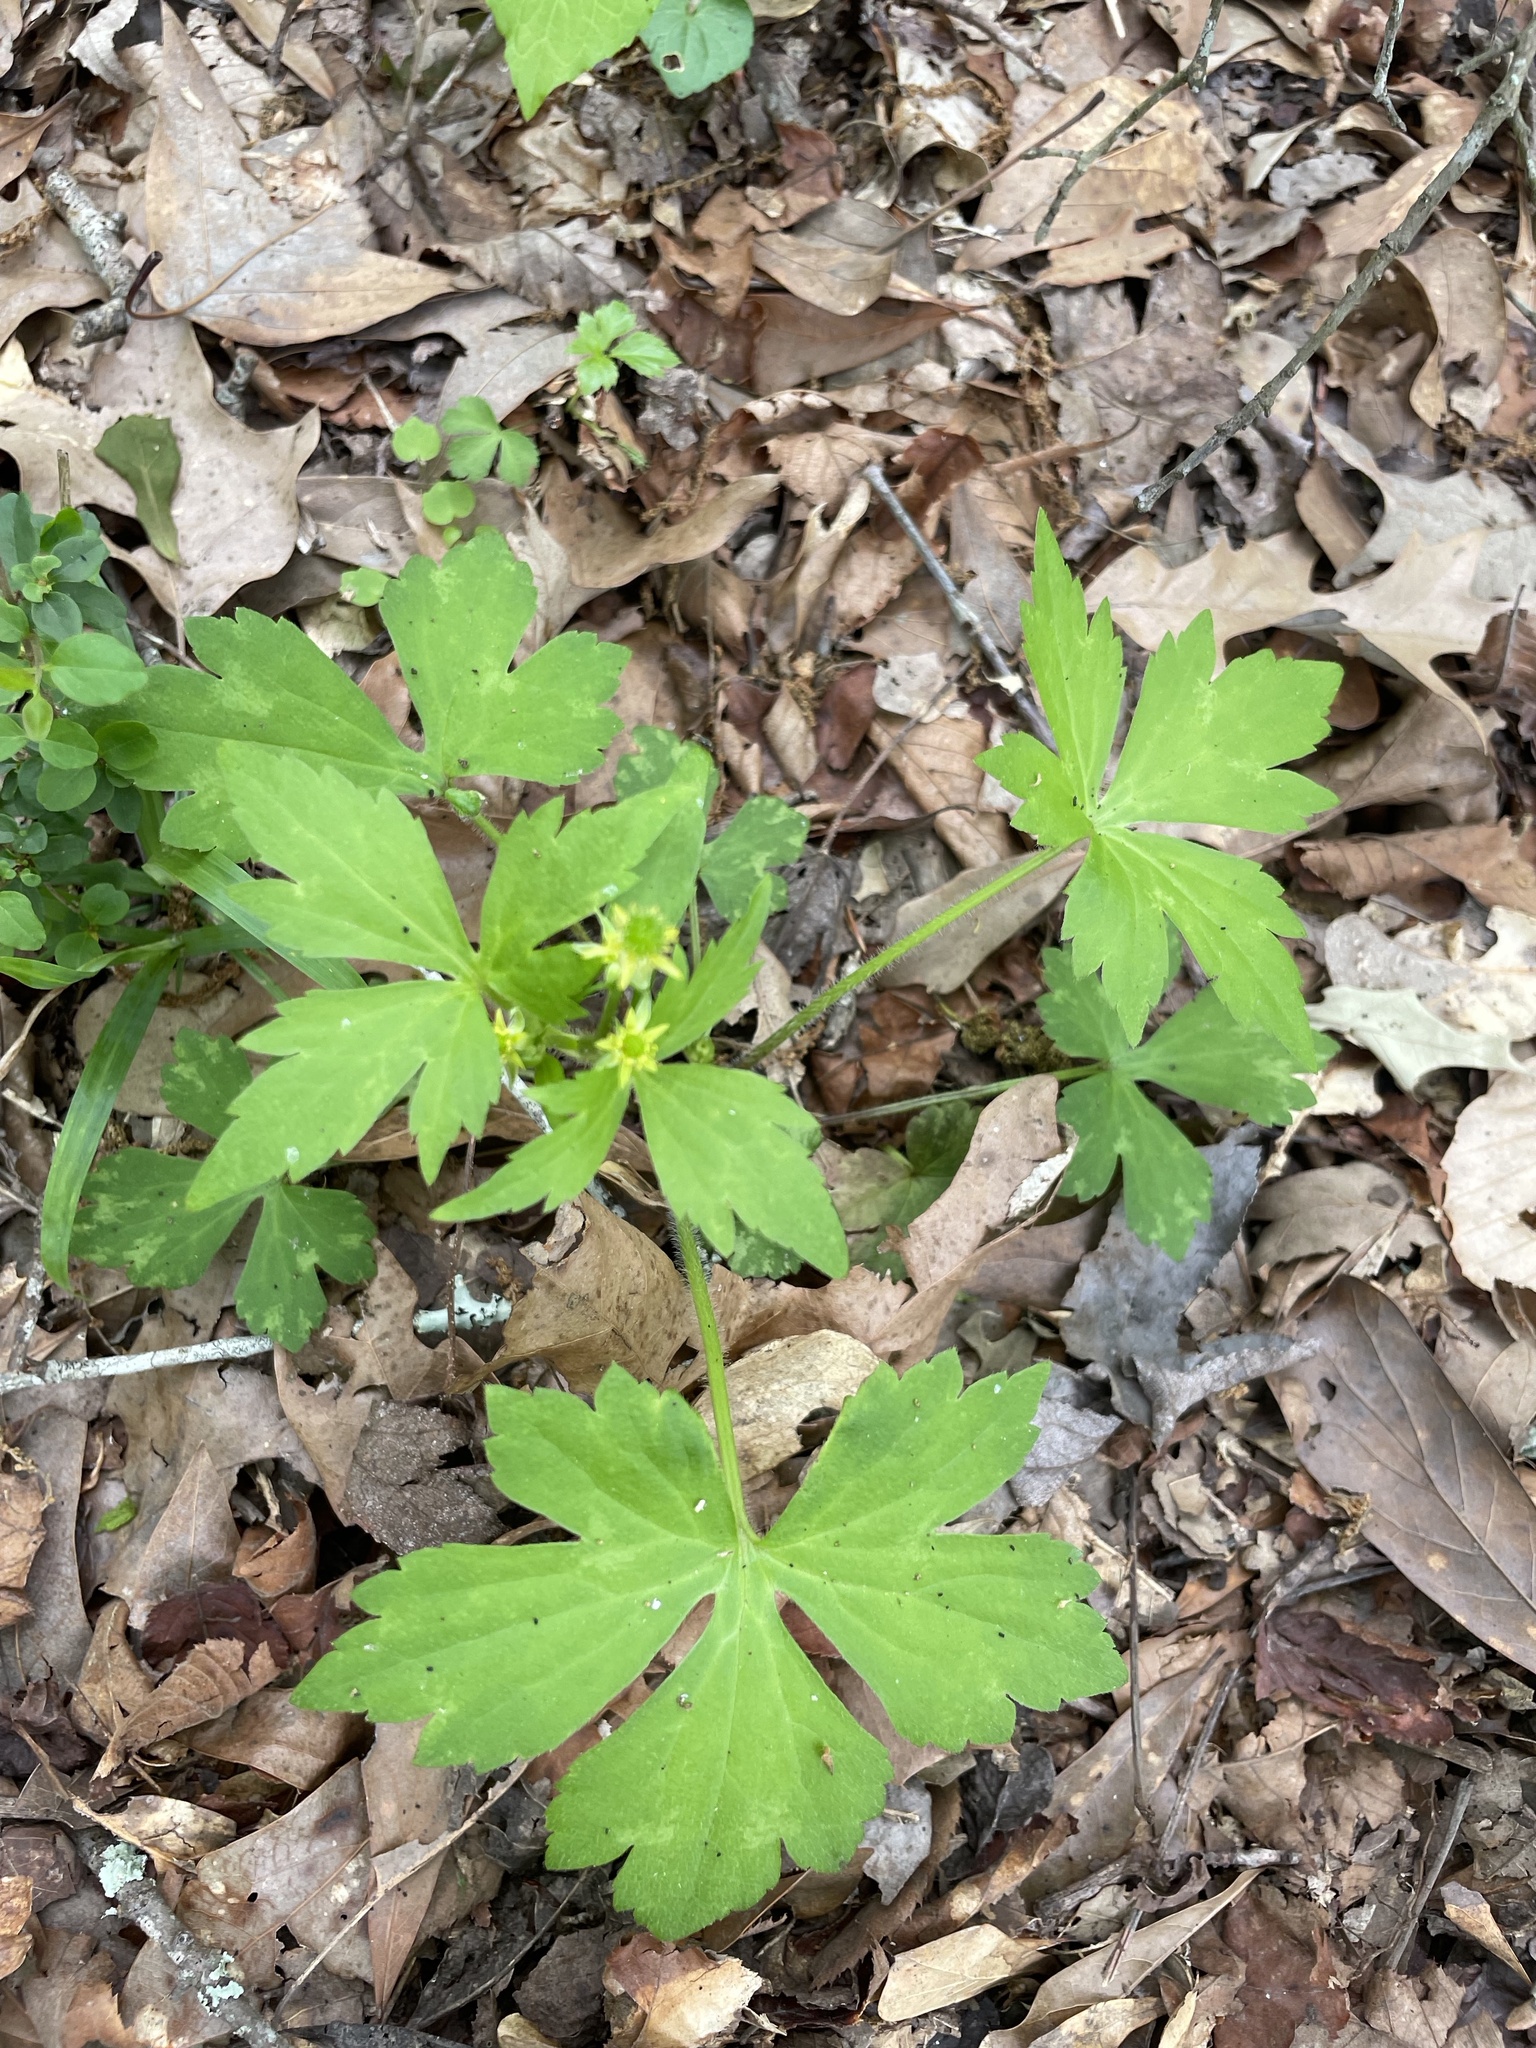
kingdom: Plantae
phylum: Tracheophyta
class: Magnoliopsida
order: Ranunculales
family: Ranunculaceae
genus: Ranunculus
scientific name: Ranunculus recurvatus
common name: Blisterwort
